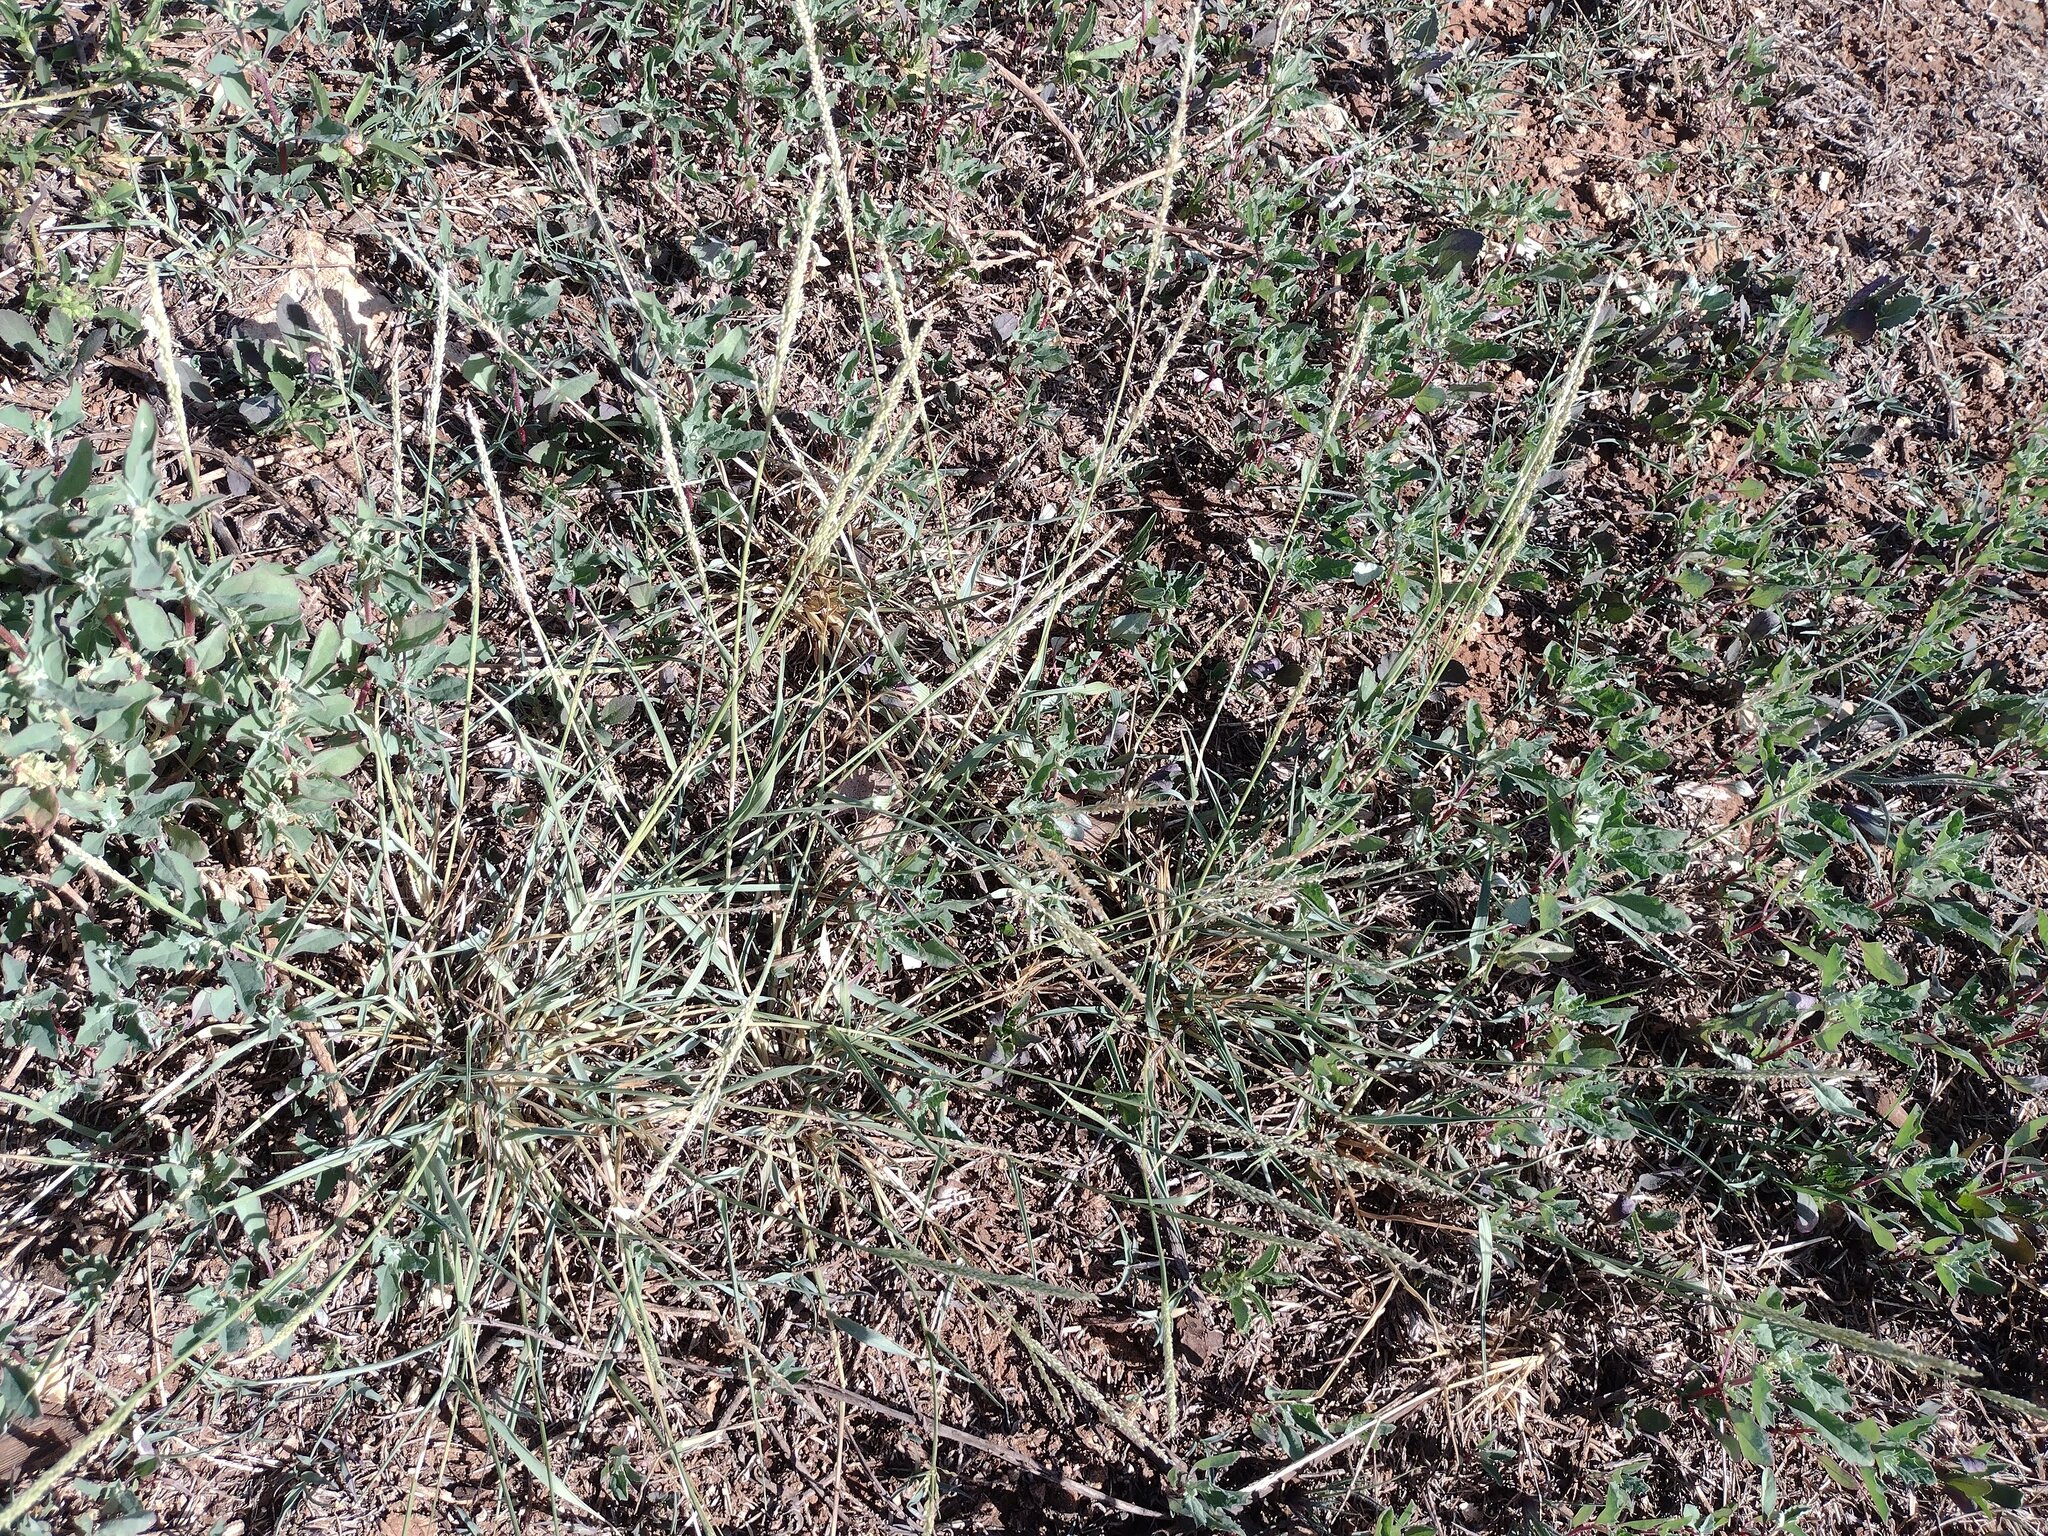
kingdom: Plantae
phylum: Tracheophyta
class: Liliopsida
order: Poales
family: Poaceae
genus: Sporobolus
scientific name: Sporobolus pyramidatus
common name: Whorled dropseed
